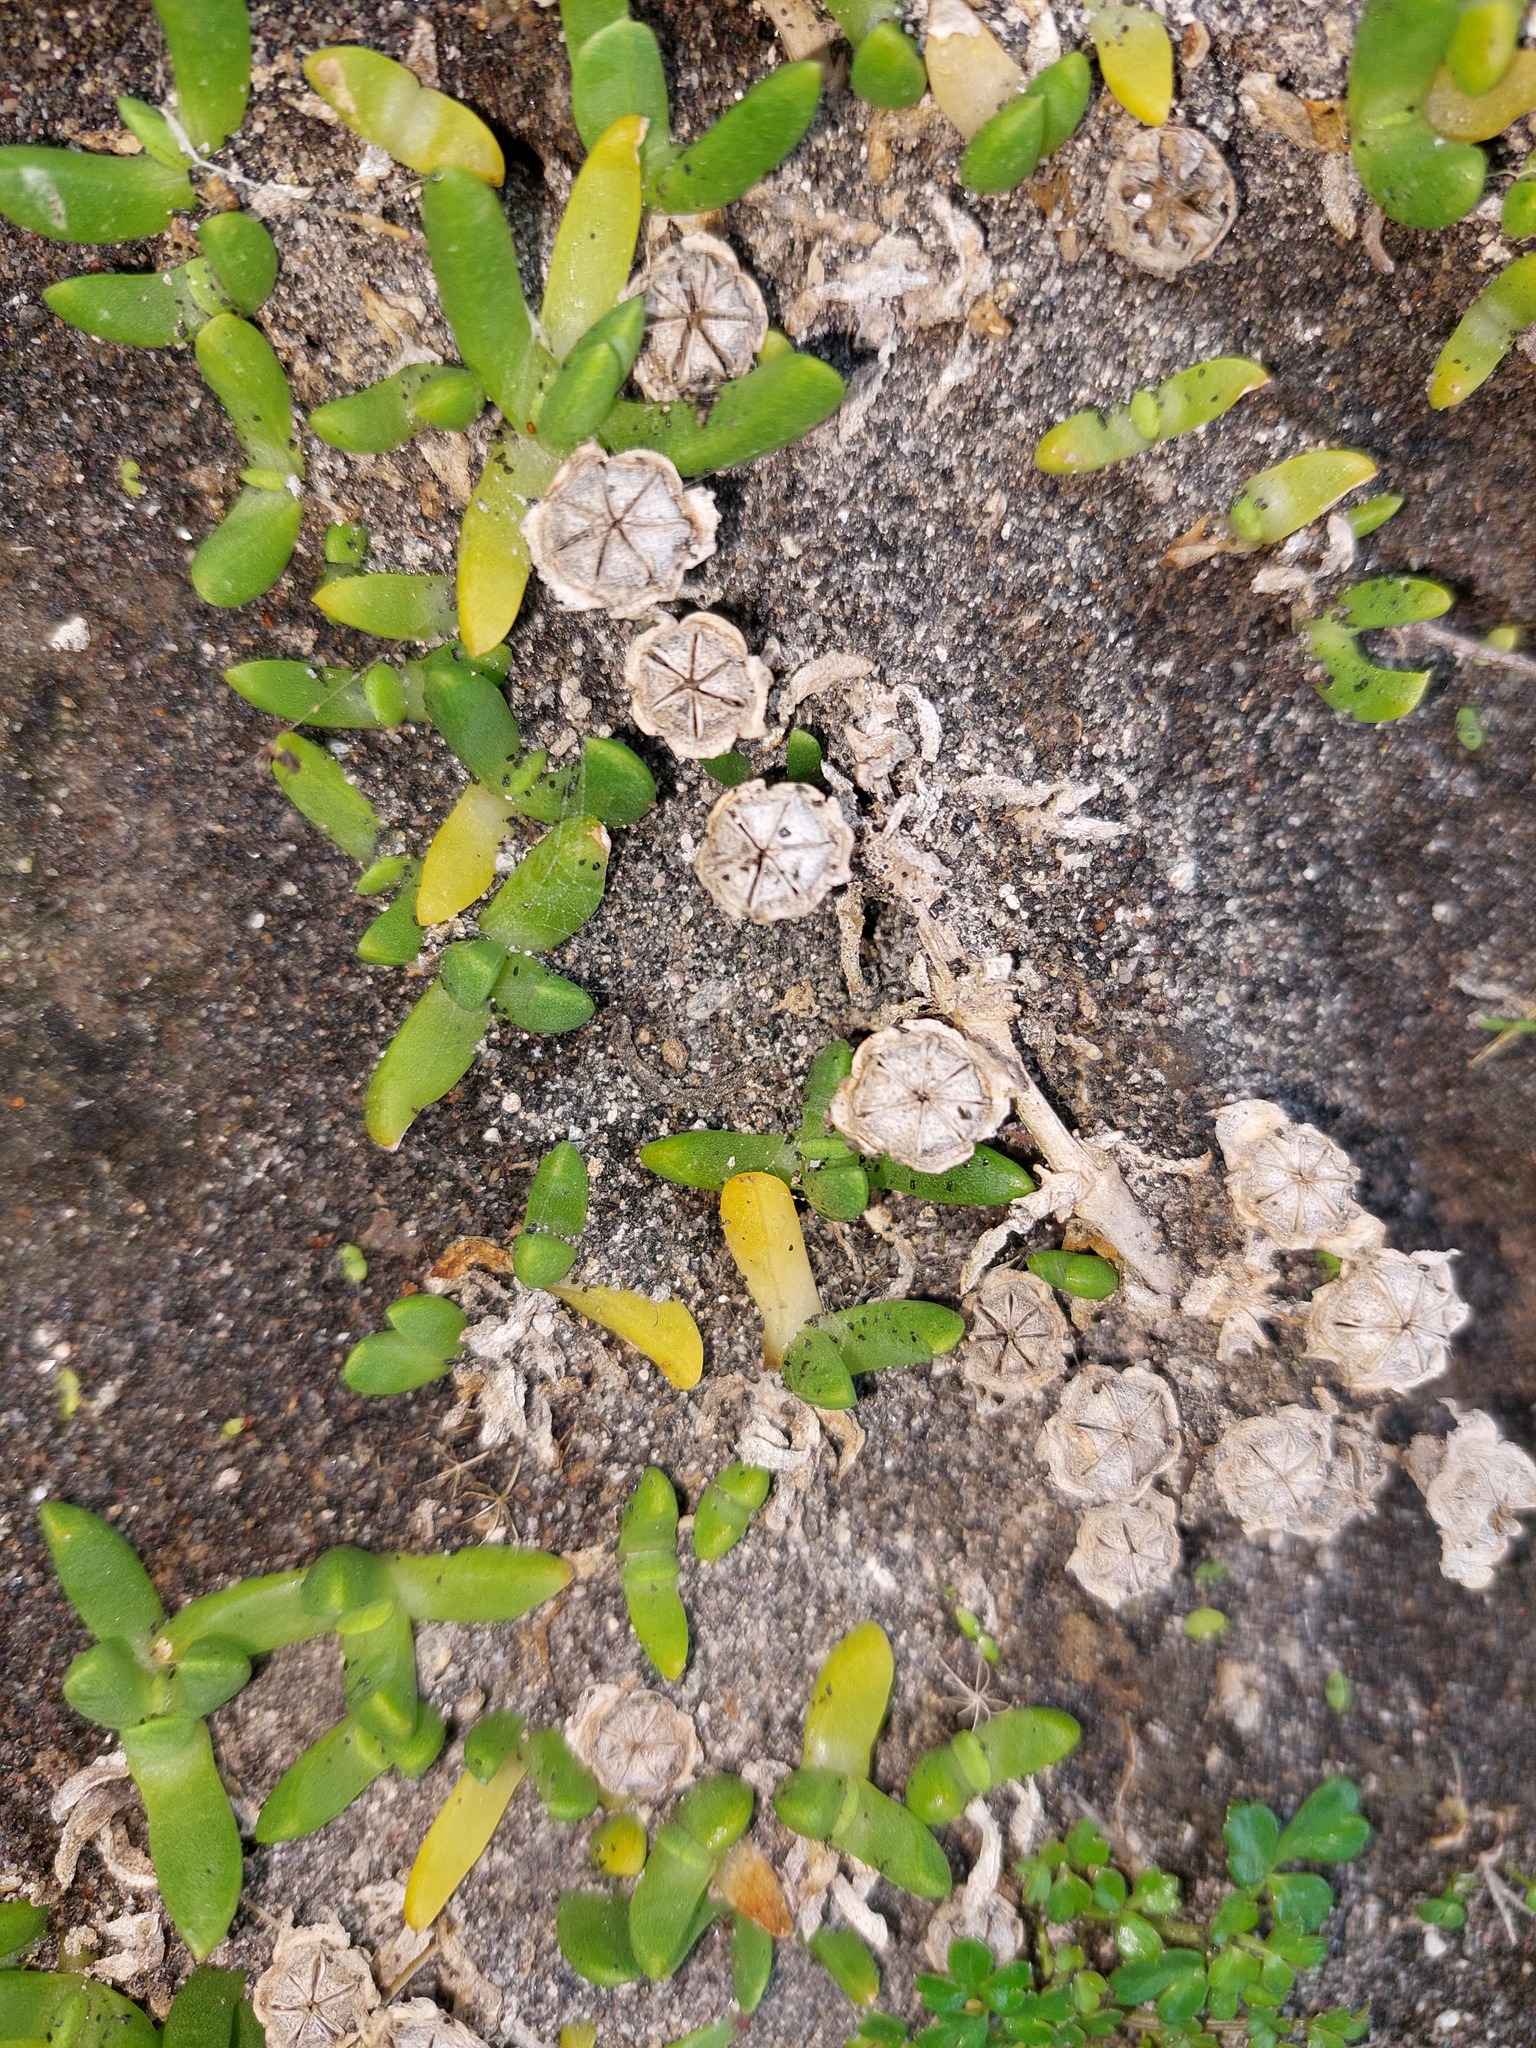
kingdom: Plantae
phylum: Tracheophyta
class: Magnoliopsida
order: Caryophyllales
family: Aizoaceae
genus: Disphyma
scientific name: Disphyma australe
